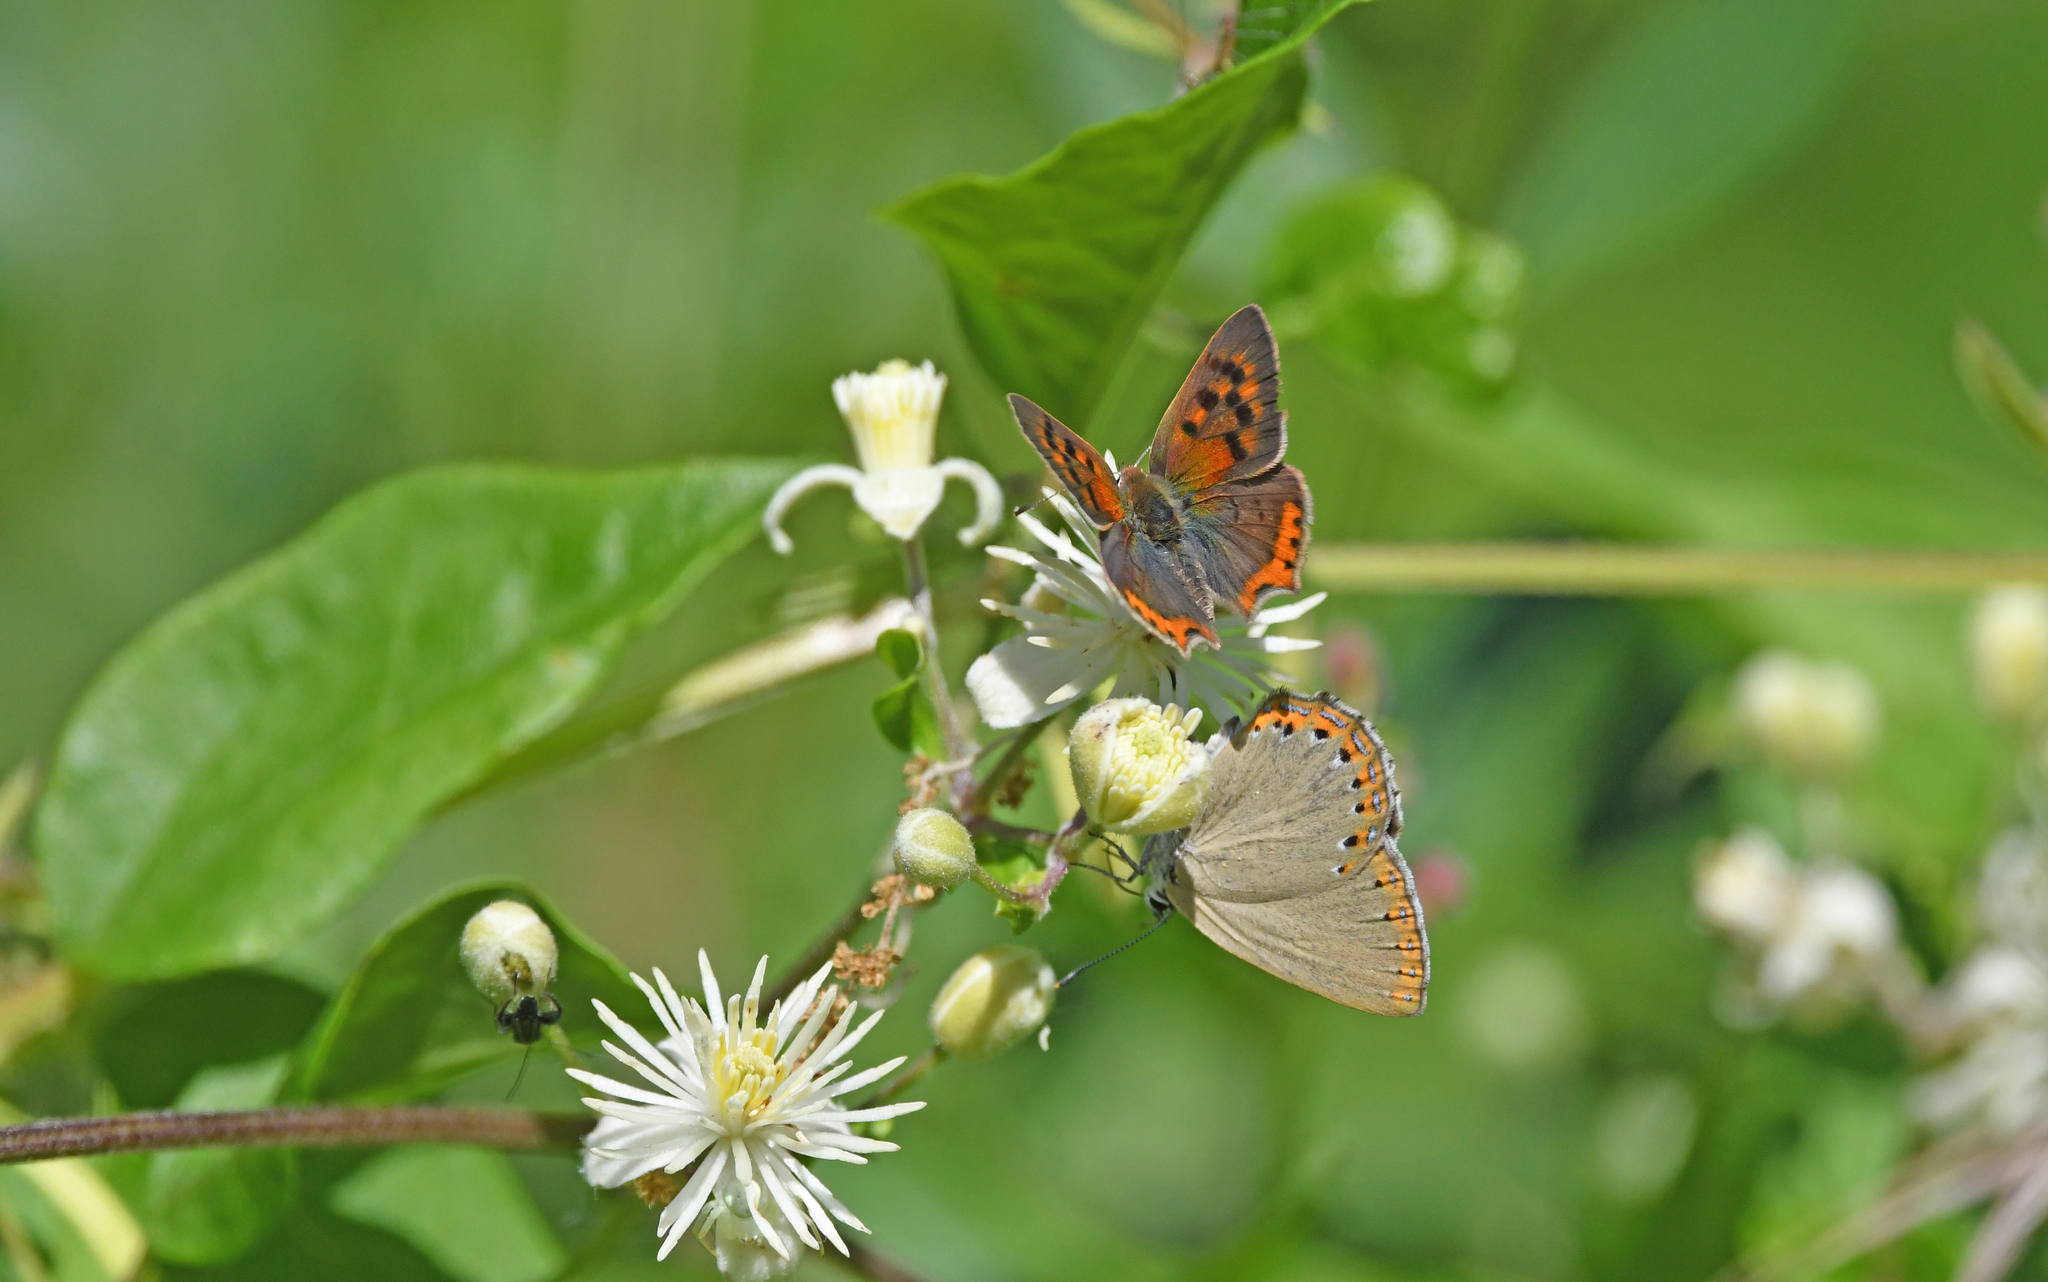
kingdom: Animalia
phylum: Arthropoda
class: Insecta
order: Lepidoptera
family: Lycaenidae
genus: Lycaena
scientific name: Lycaena phlaeas
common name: Small copper
